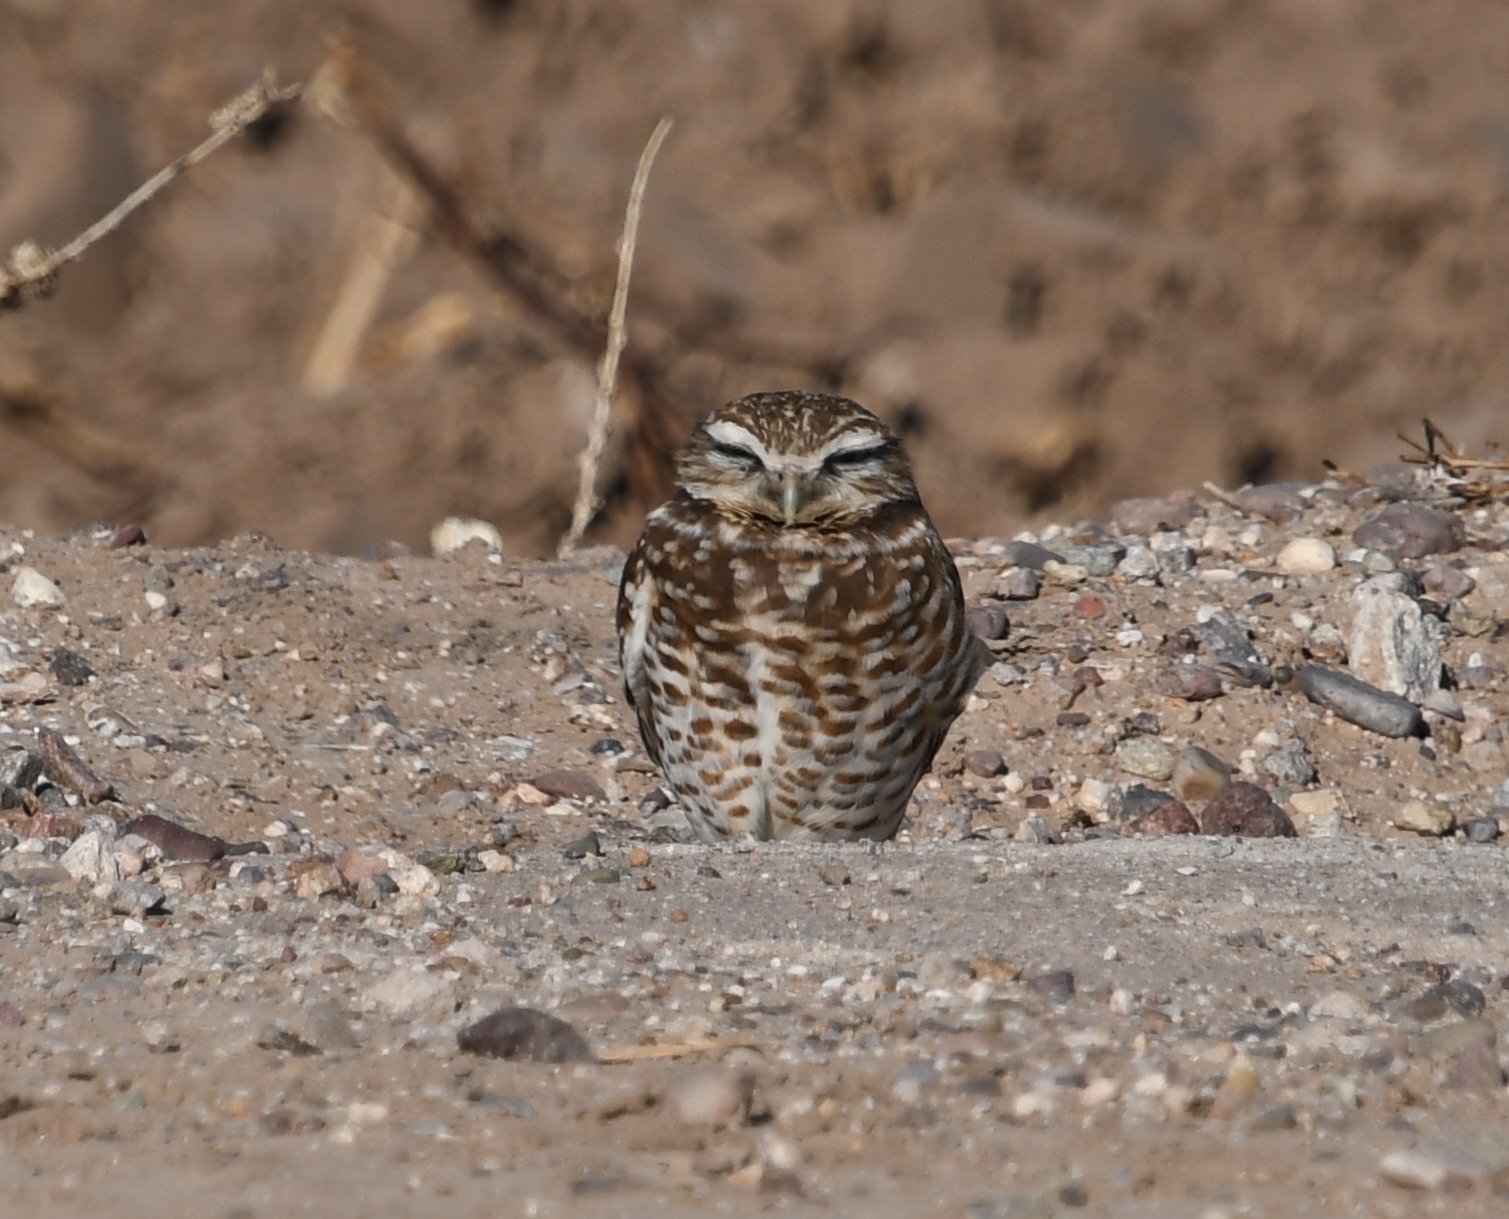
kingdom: Animalia
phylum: Chordata
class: Aves
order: Strigiformes
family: Strigidae
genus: Athene
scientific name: Athene cunicularia
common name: Burrowing owl
